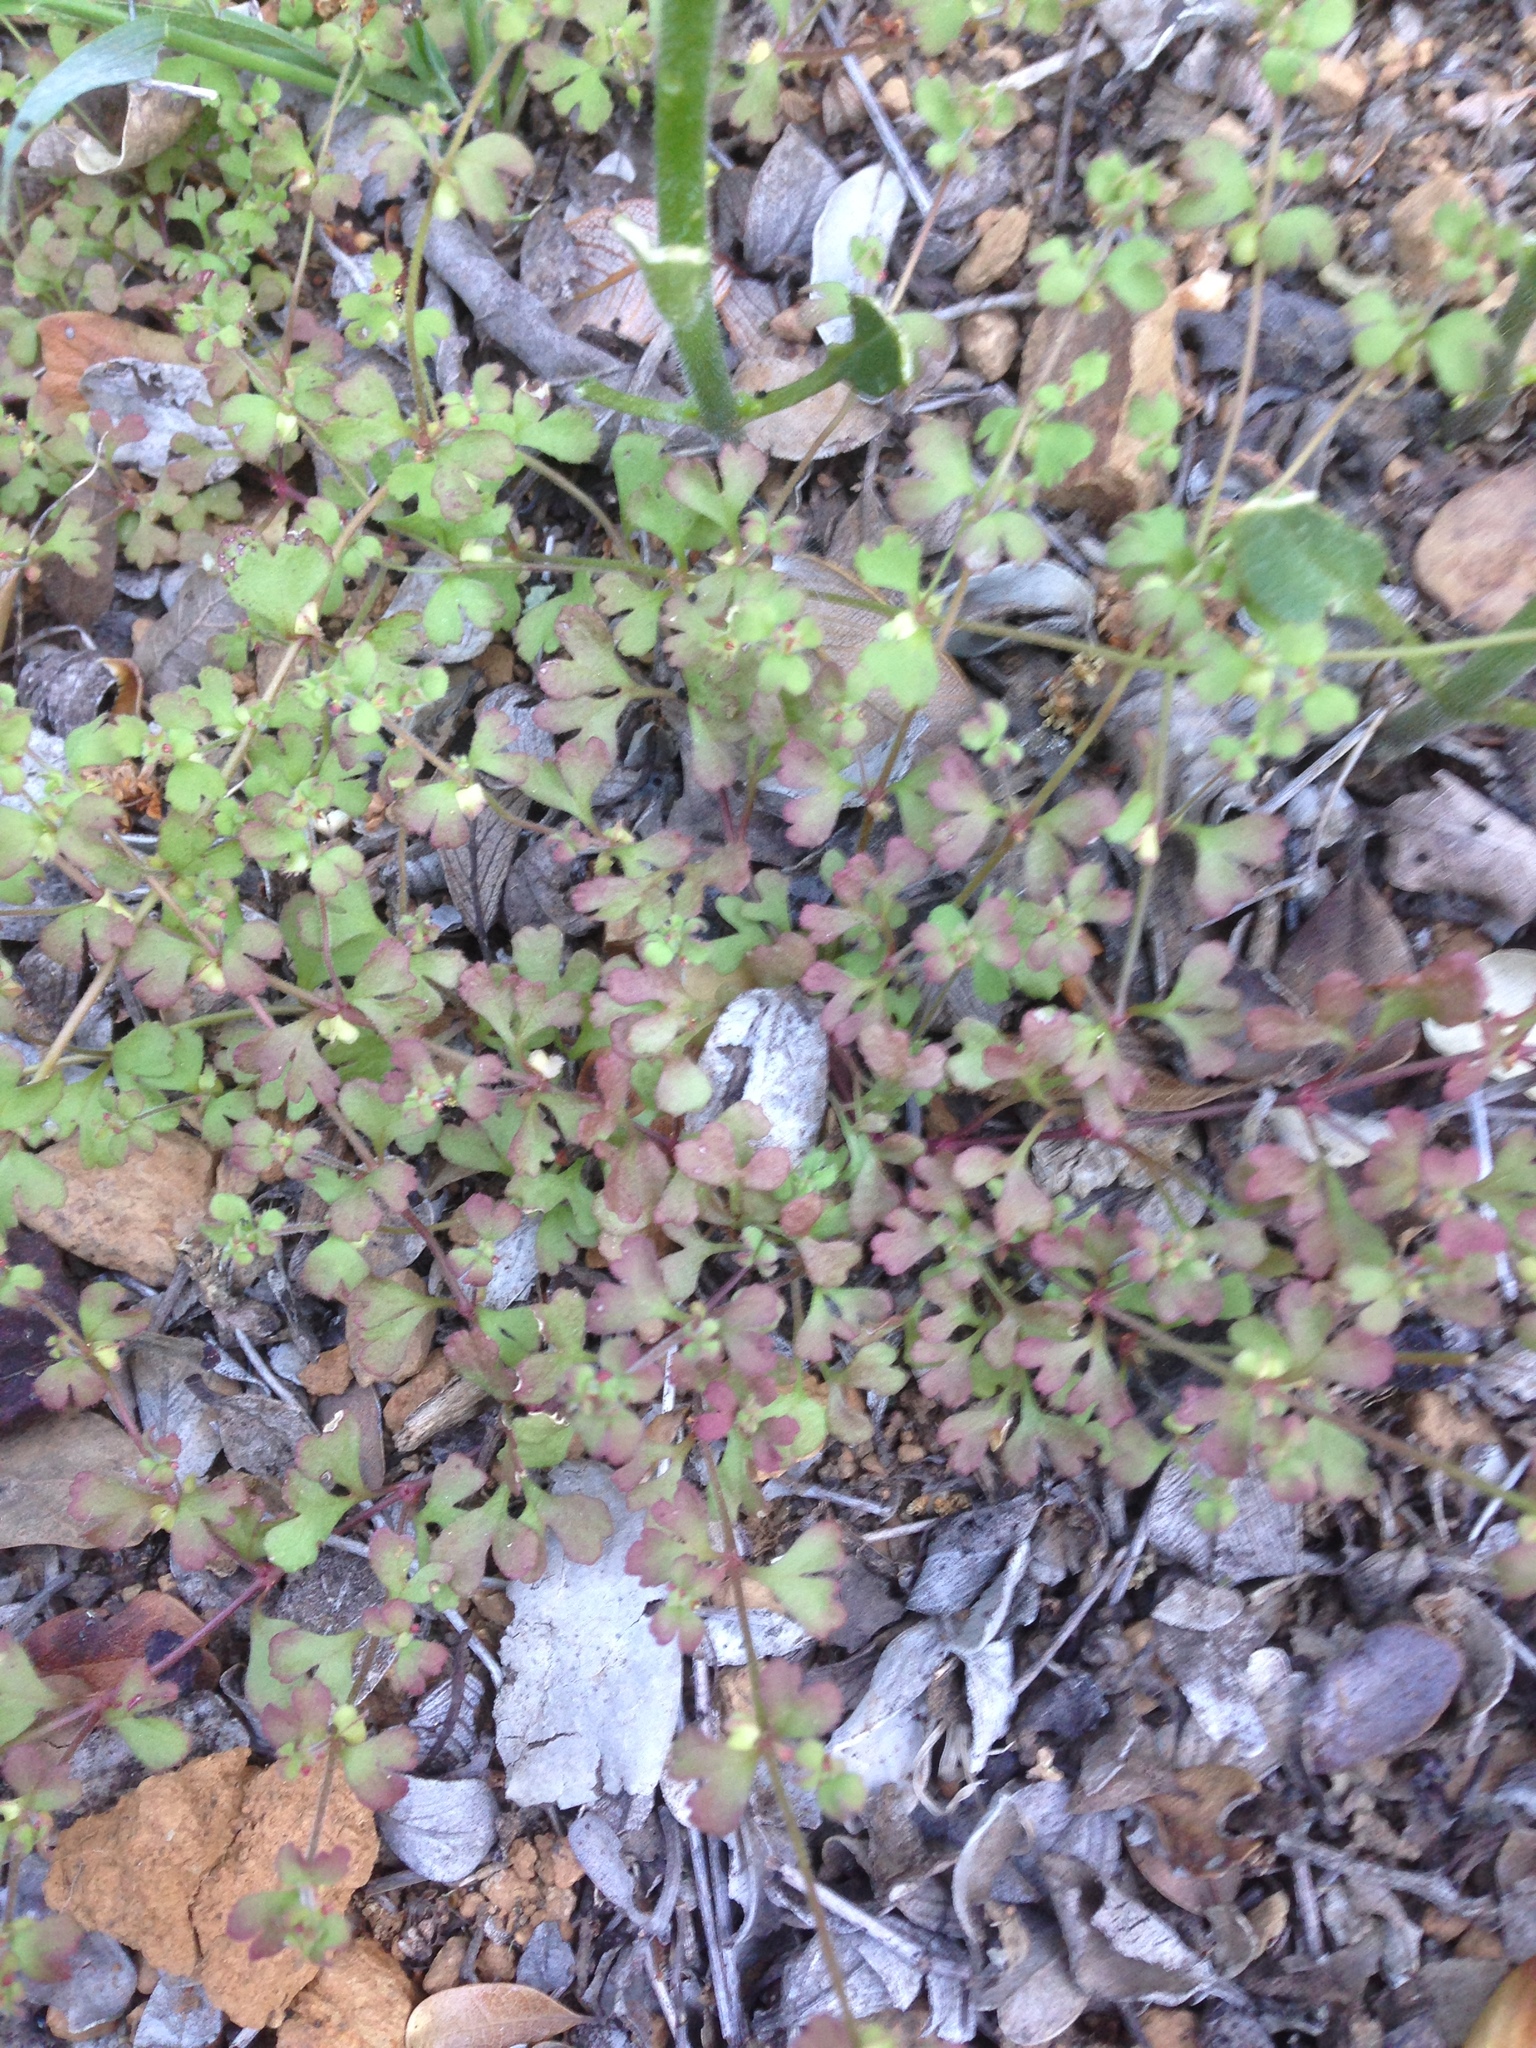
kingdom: Plantae
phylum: Tracheophyta
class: Magnoliopsida
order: Caryophyllales
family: Polygonaceae
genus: Pterostegia
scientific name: Pterostegia drymarioides
